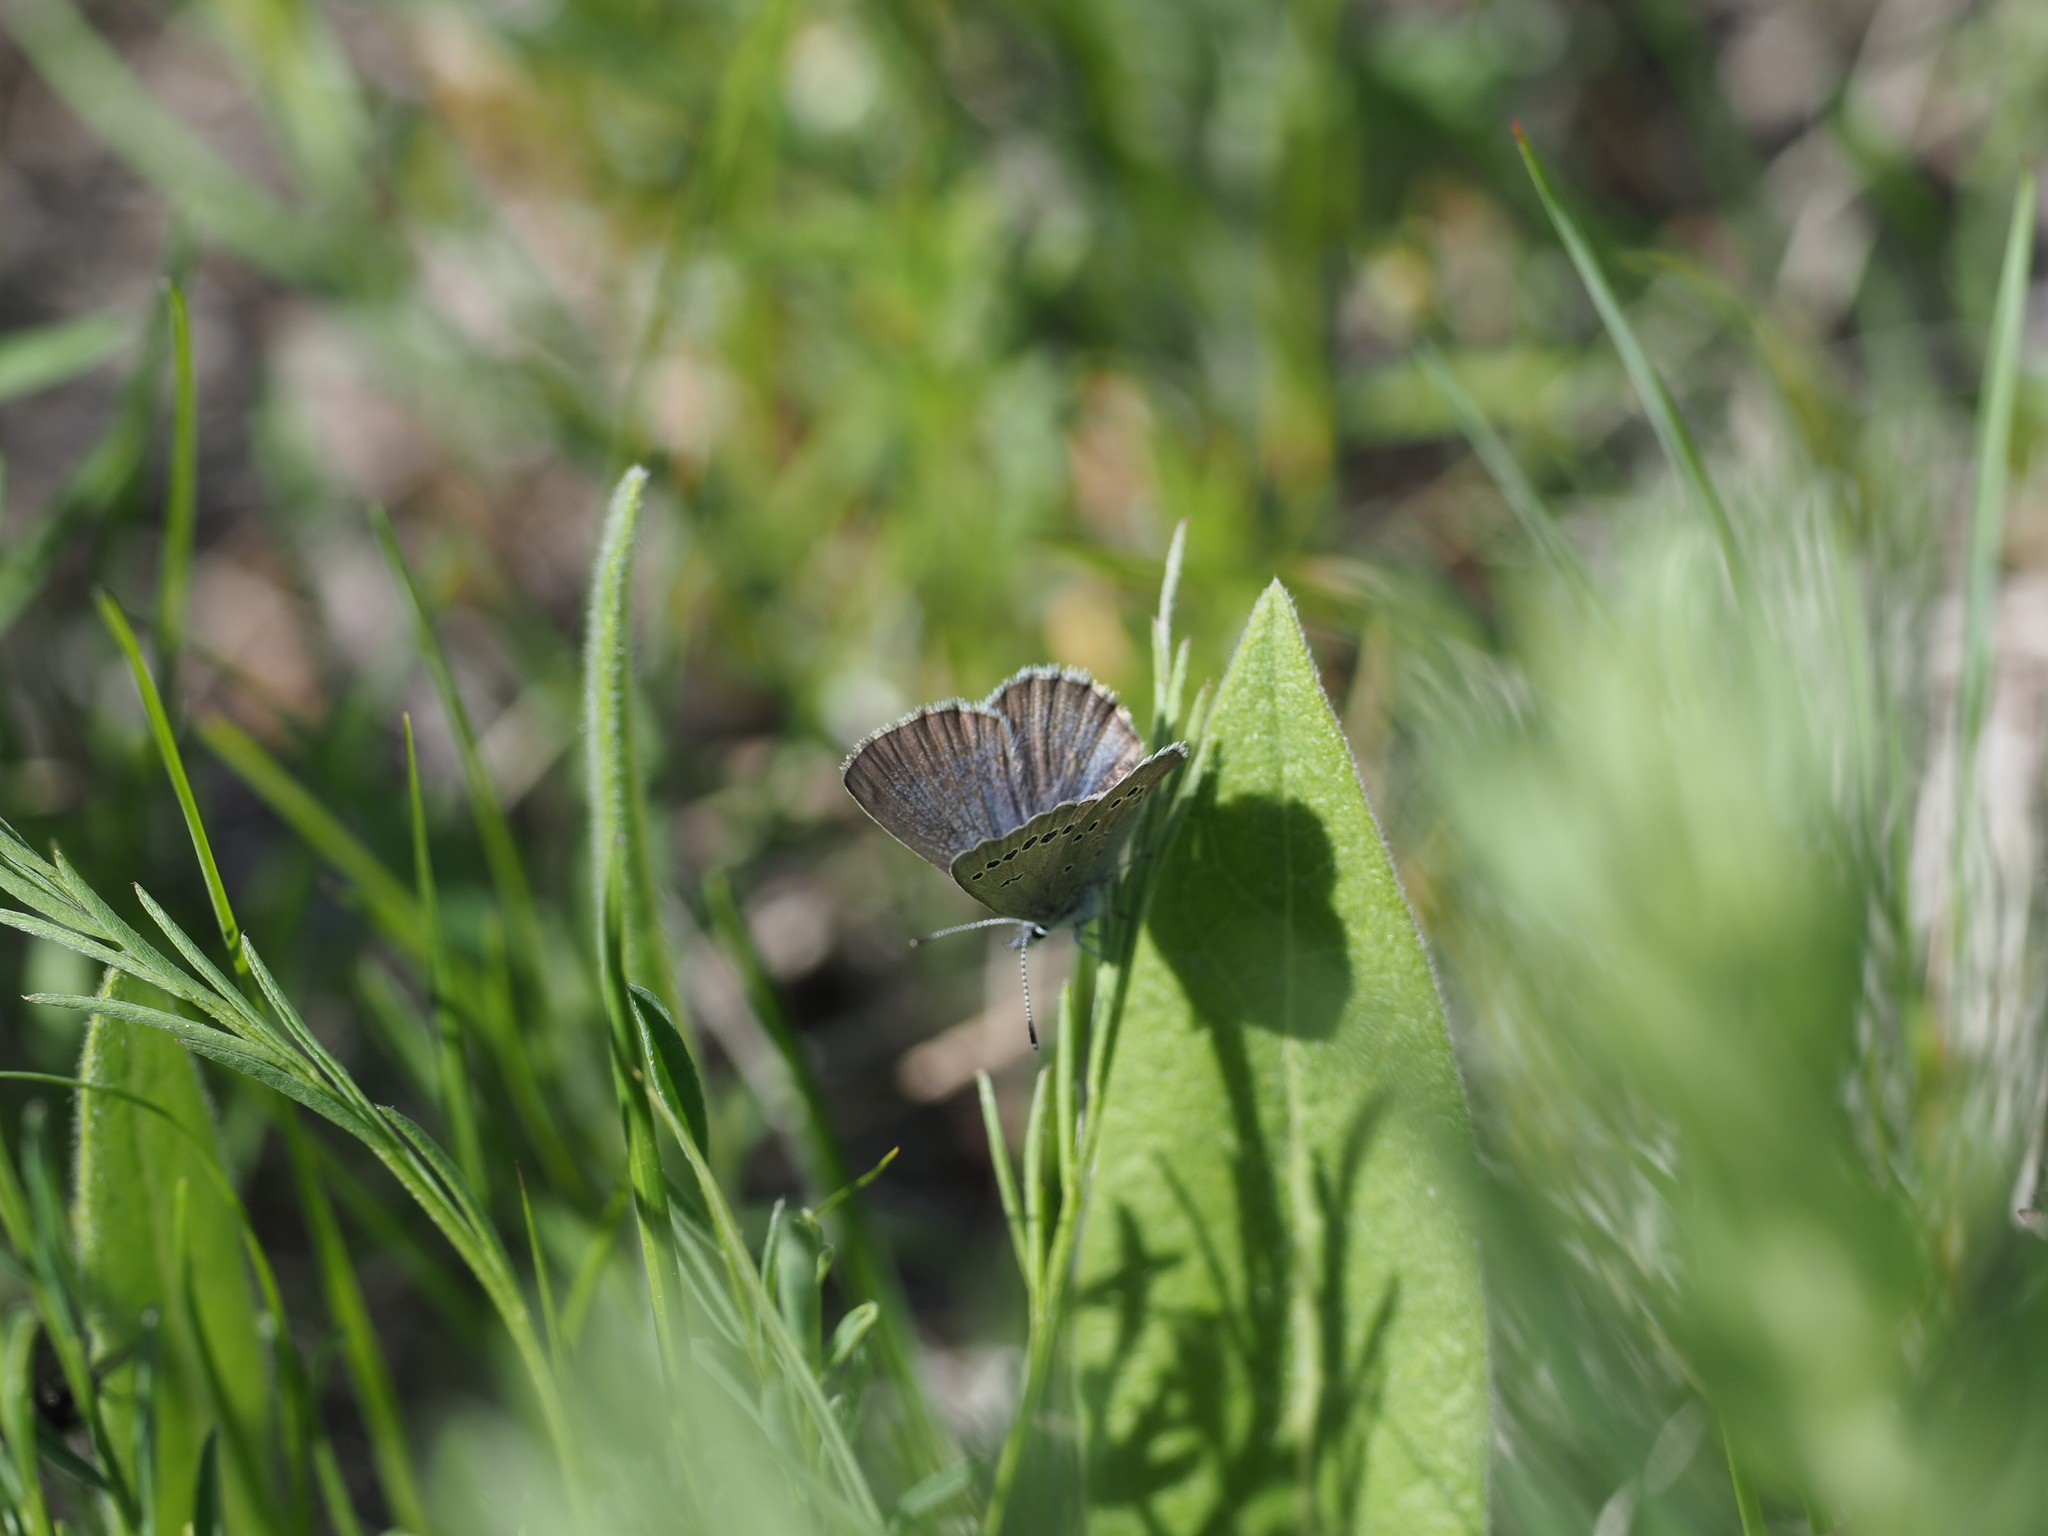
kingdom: Animalia
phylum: Arthropoda
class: Insecta
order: Lepidoptera
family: Lycaenidae
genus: Glaucopsyche
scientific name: Glaucopsyche lygdamus
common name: Silvery blue
